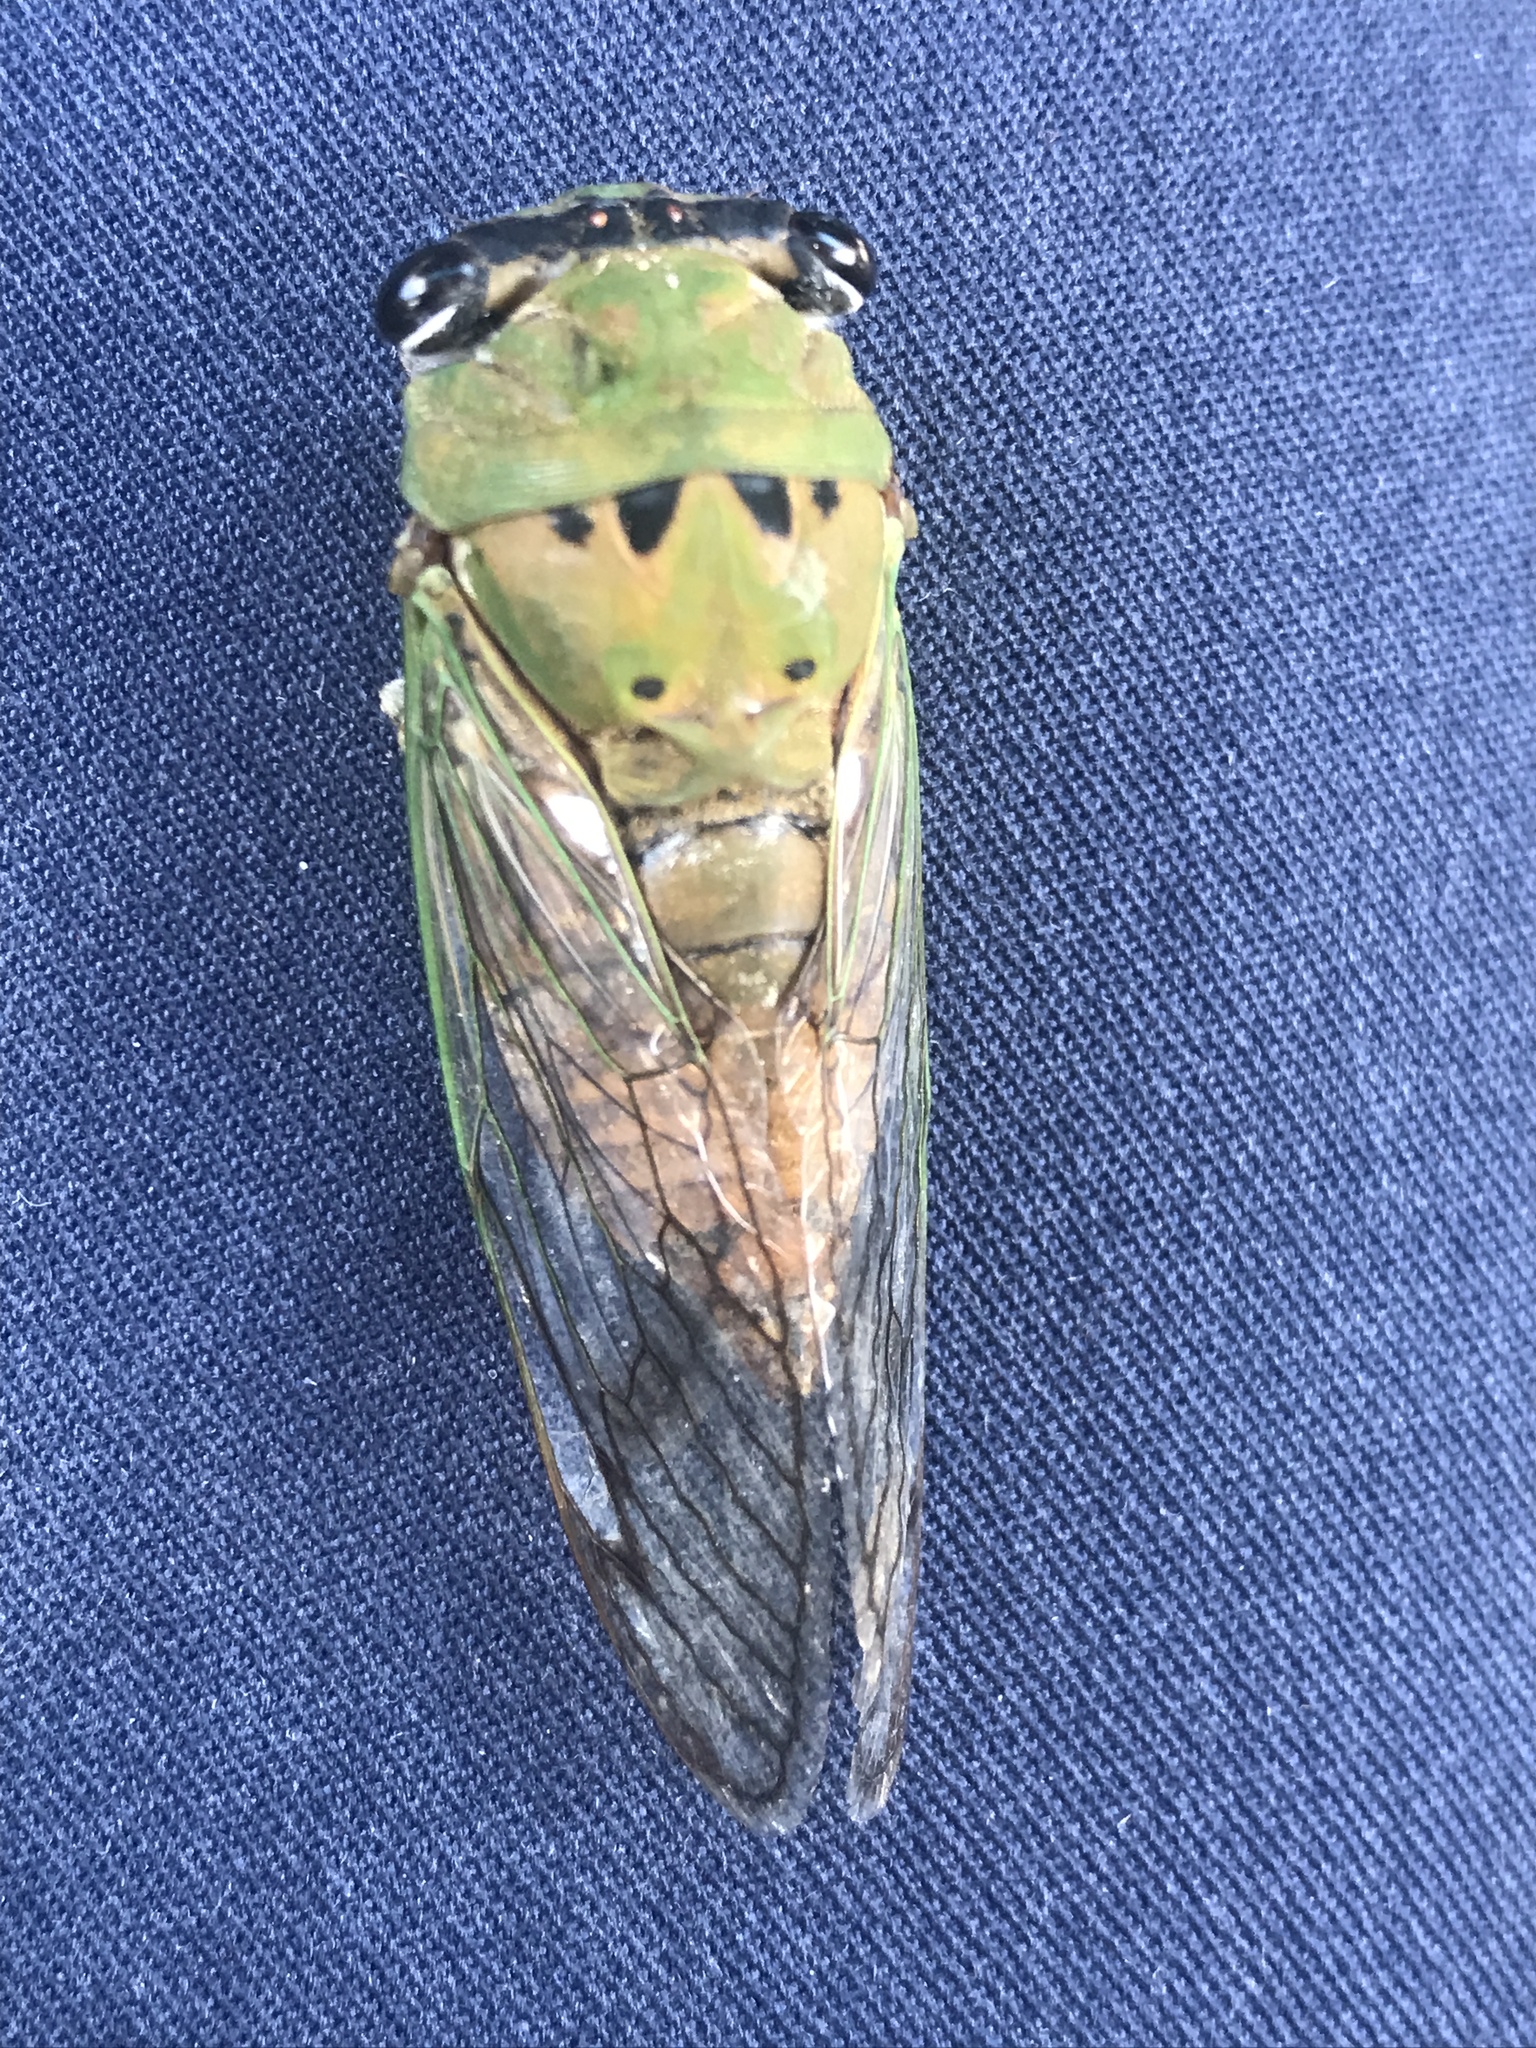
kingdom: Animalia
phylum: Arthropoda
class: Insecta
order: Hemiptera
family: Cicadidae
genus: Neotibicen
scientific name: Neotibicen superbus
